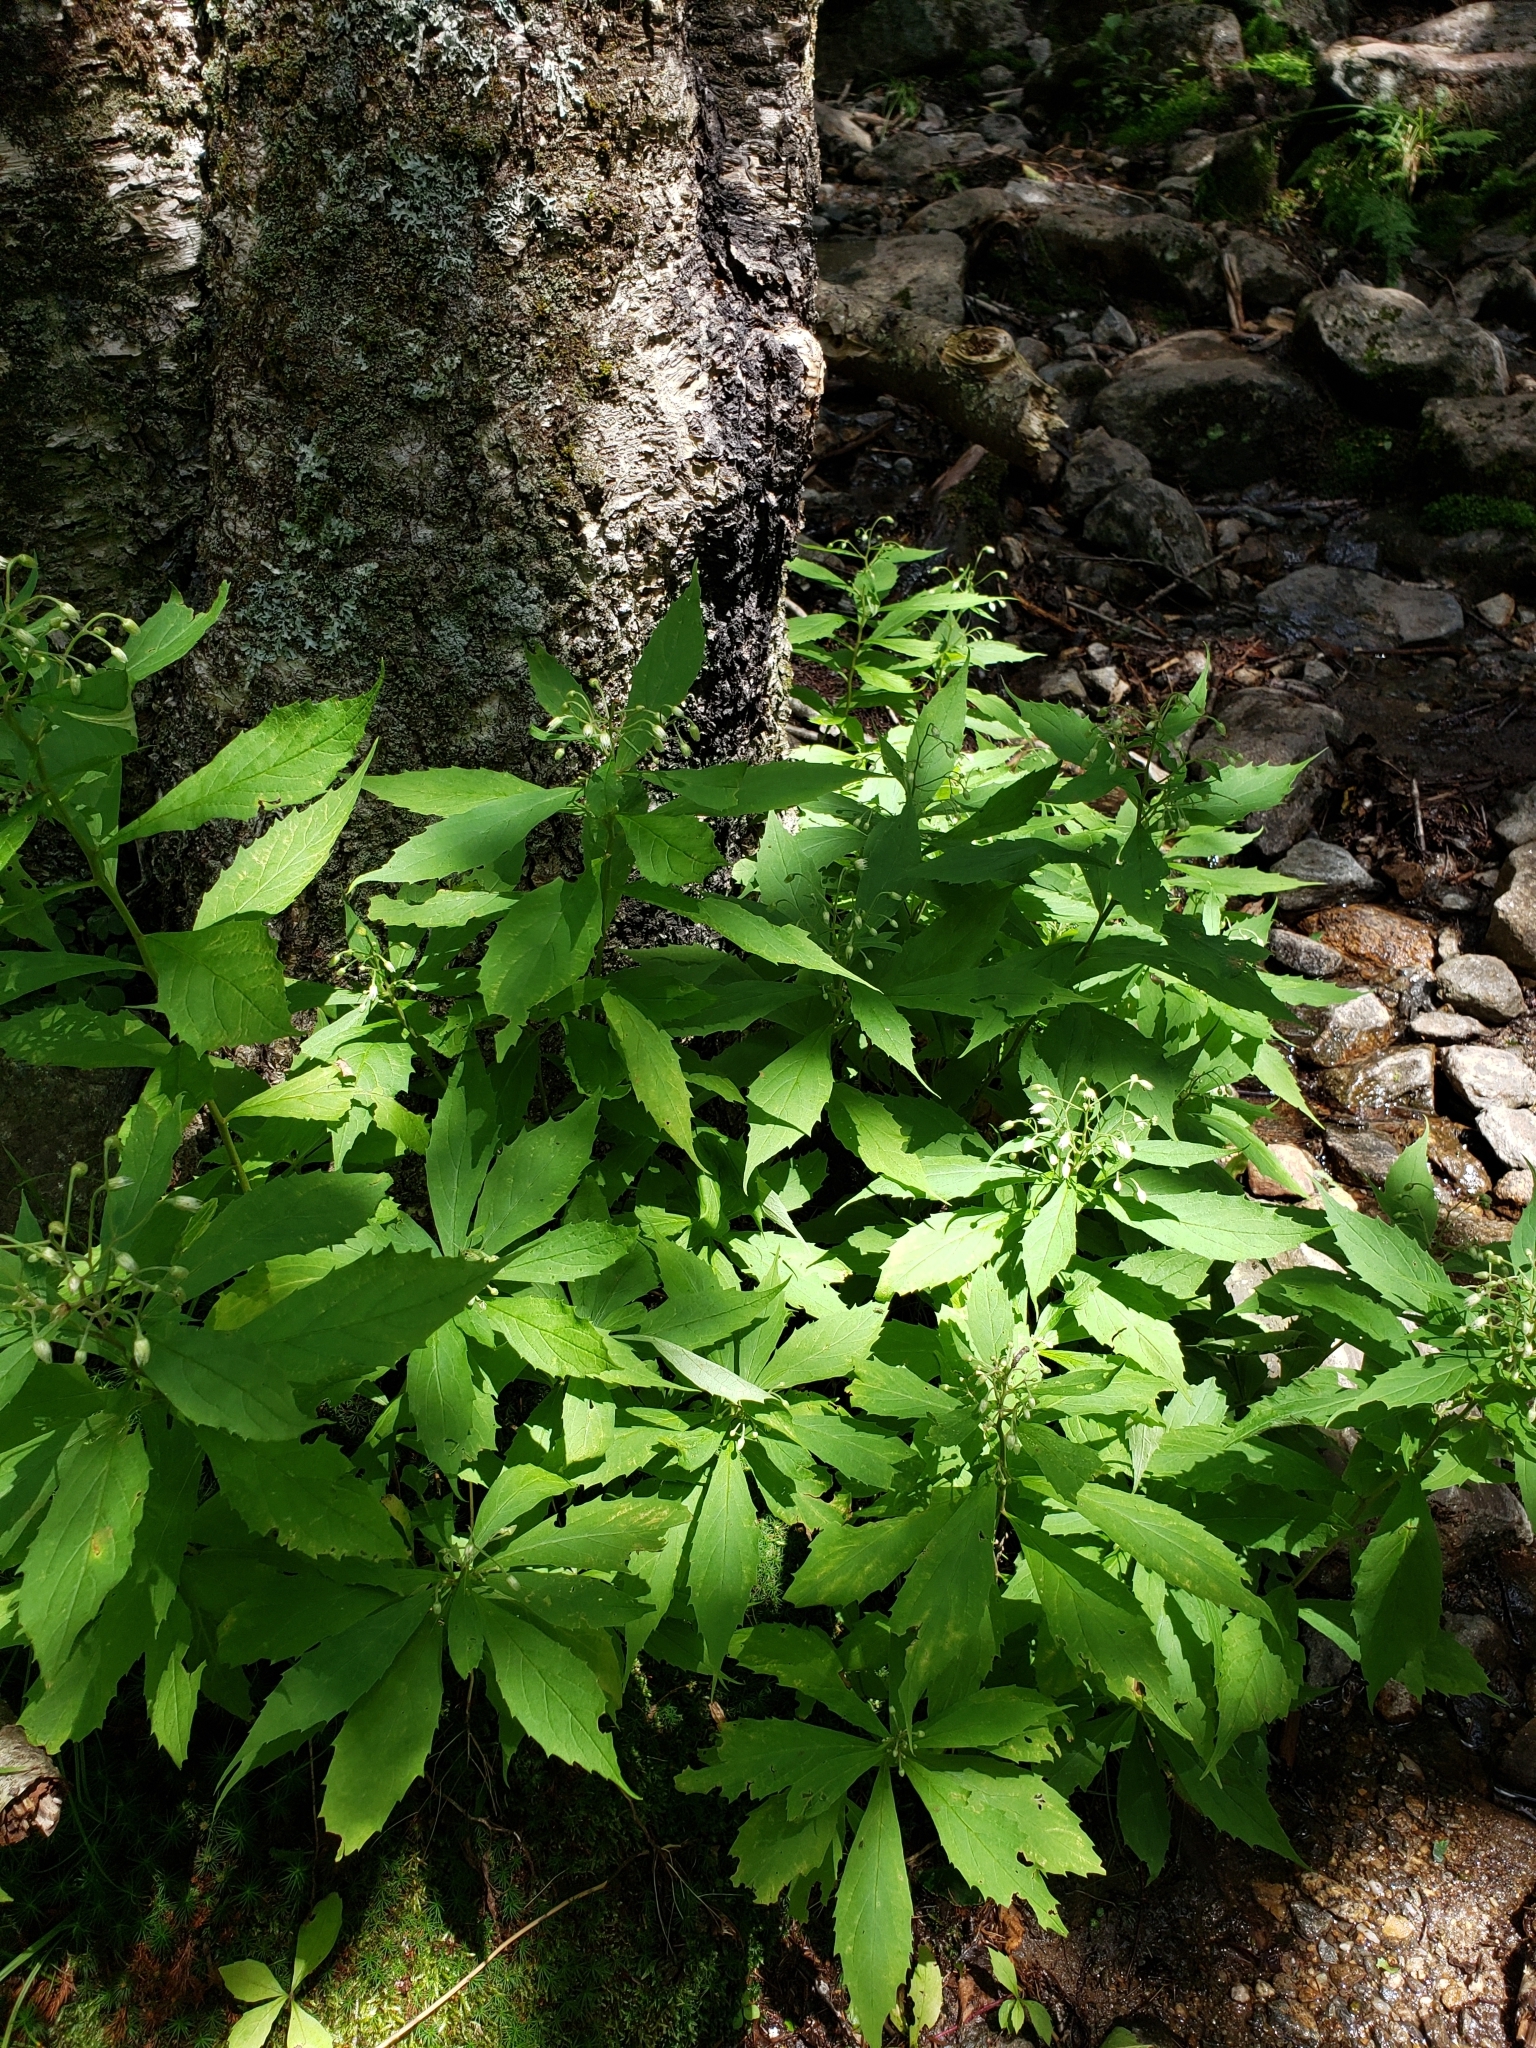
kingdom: Plantae
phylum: Tracheophyta
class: Magnoliopsida
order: Asterales
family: Asteraceae
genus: Oclemena
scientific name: Oclemena acuminata
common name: Mountain aster
